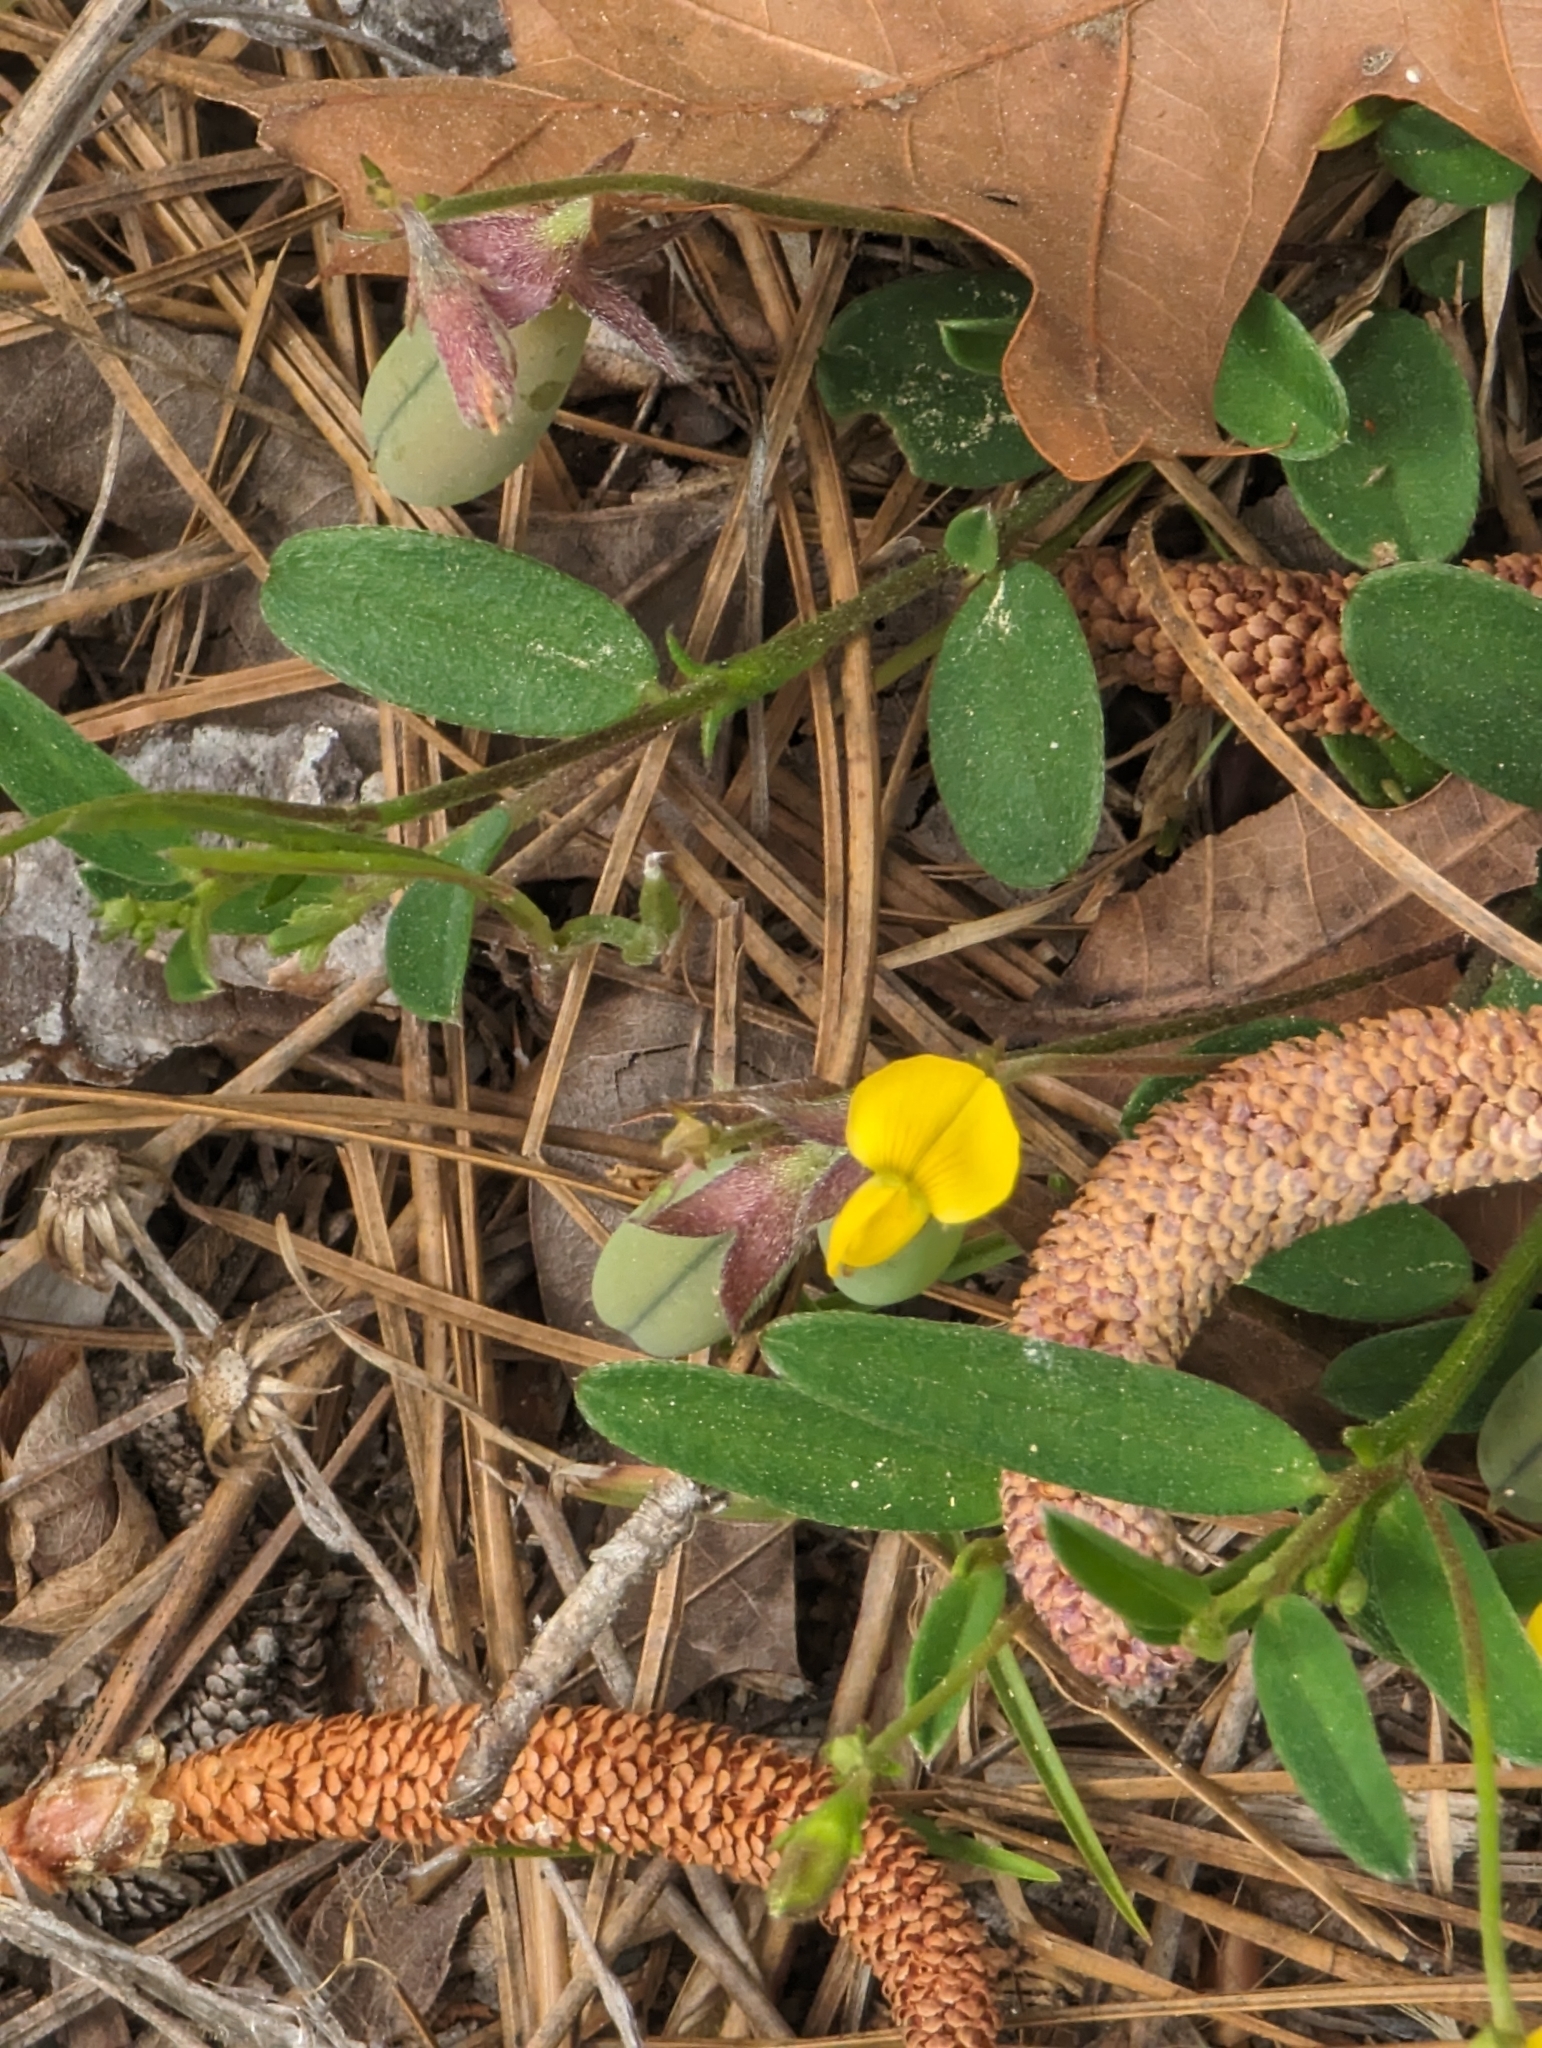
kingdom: Plantae
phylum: Tracheophyta
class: Magnoliopsida
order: Fabales
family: Fabaceae
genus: Crotalaria
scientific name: Crotalaria rotundifolia
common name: Prostrate rattlebox
